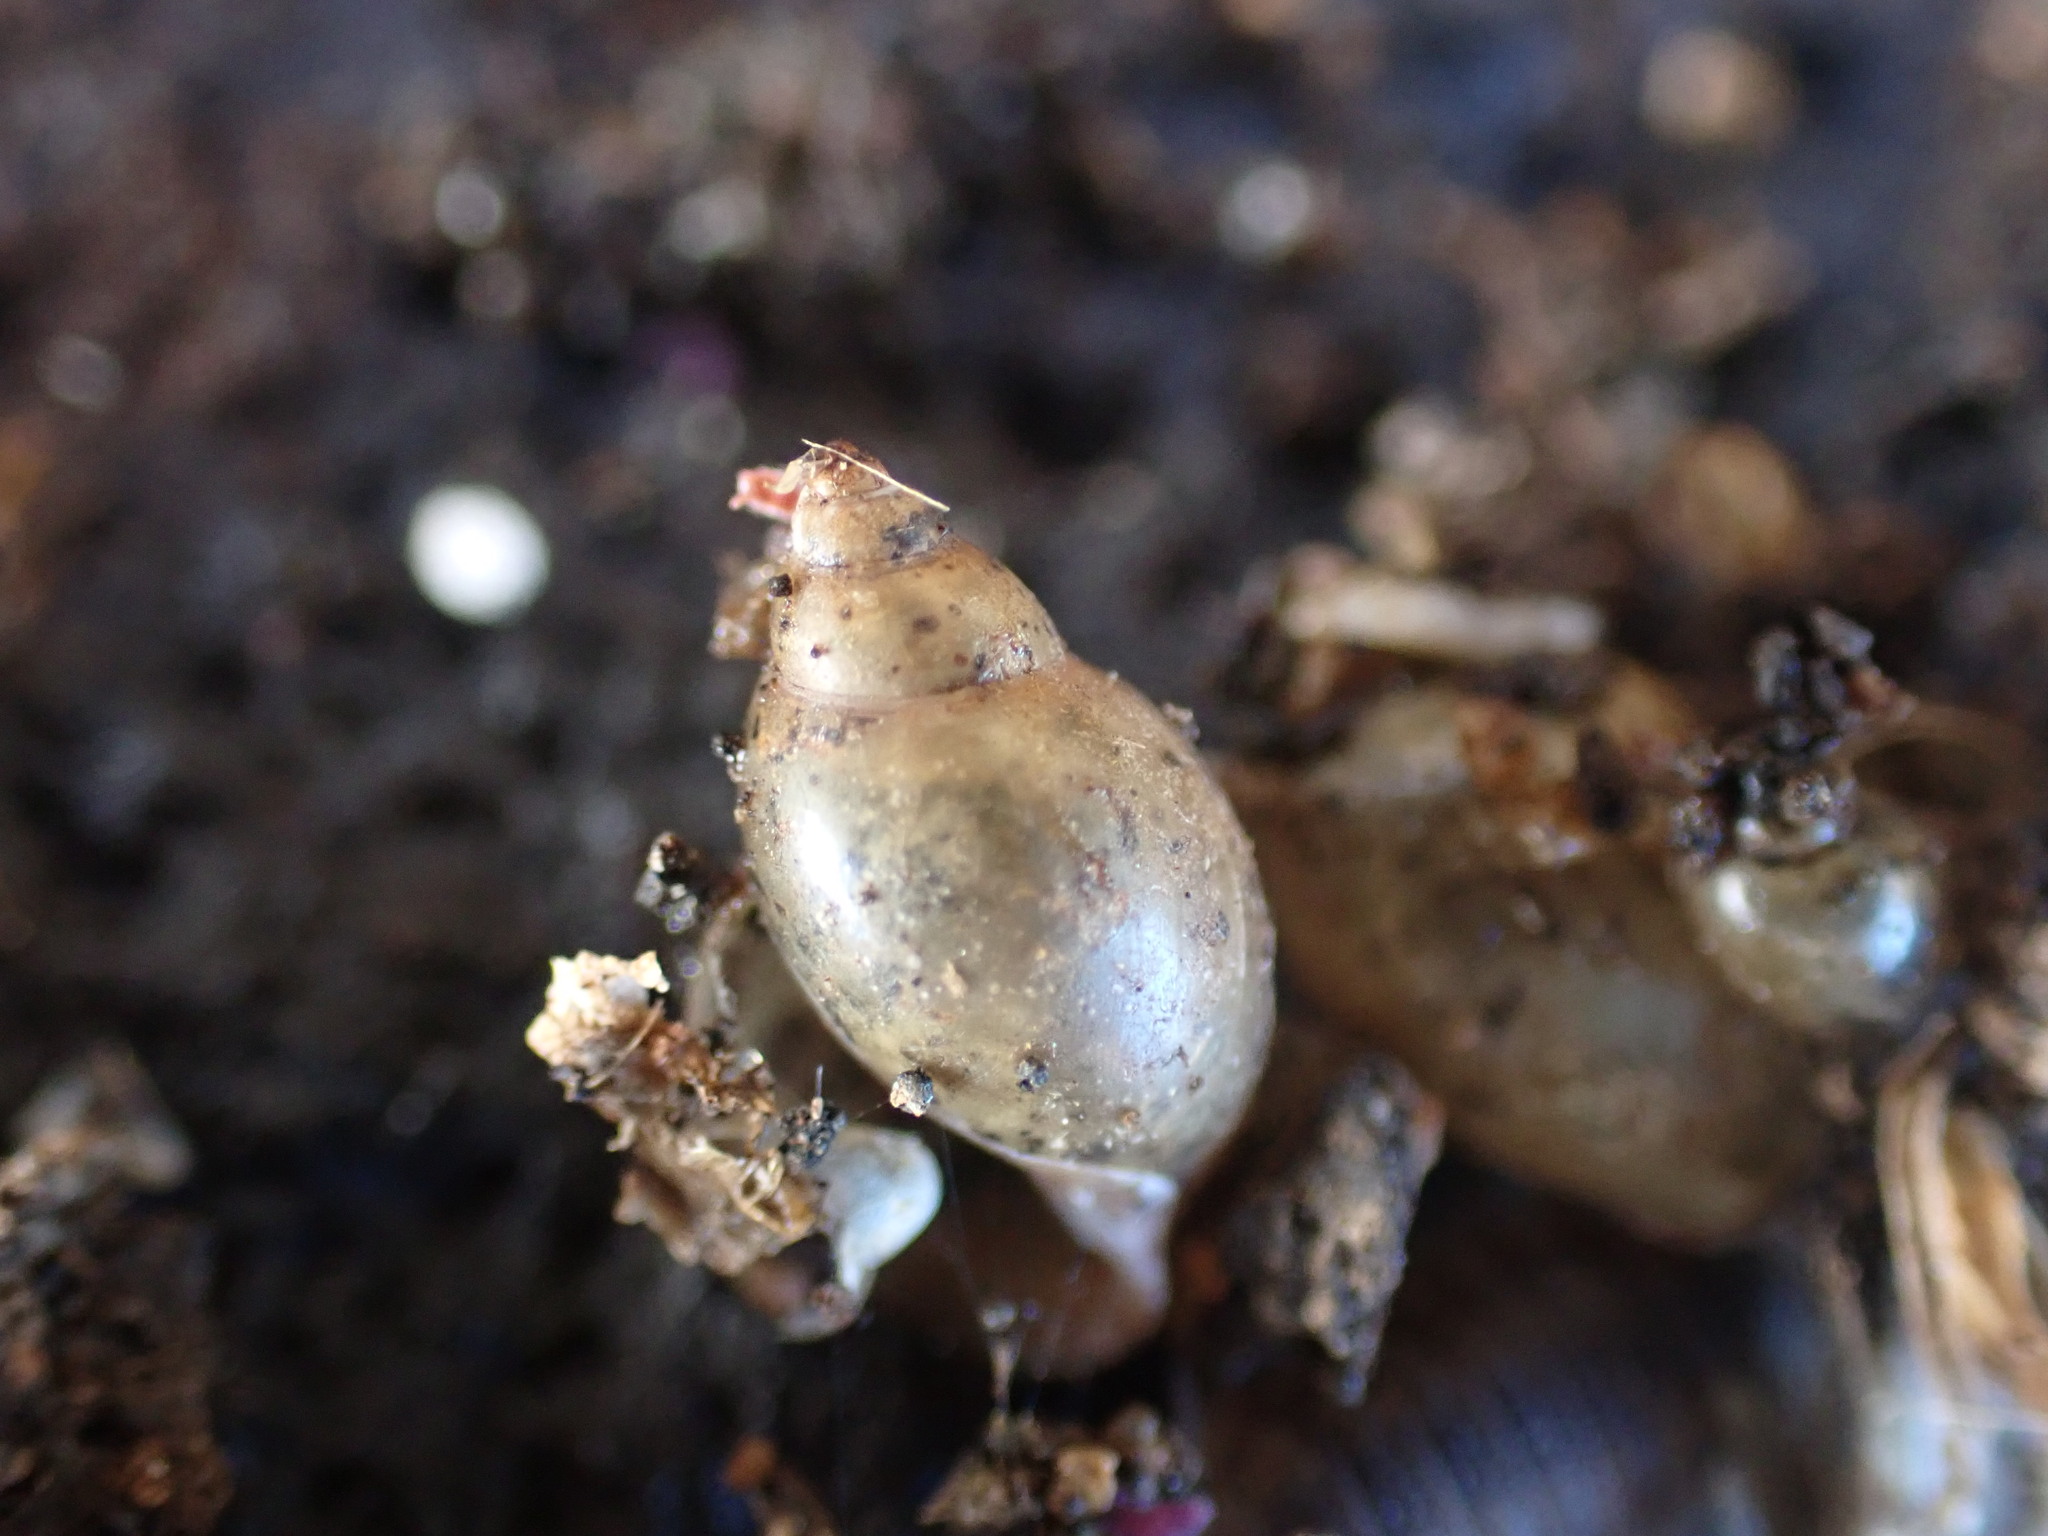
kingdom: Animalia
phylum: Mollusca
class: Gastropoda
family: Physidae
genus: Physella
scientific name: Physella acuta
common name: European physa
